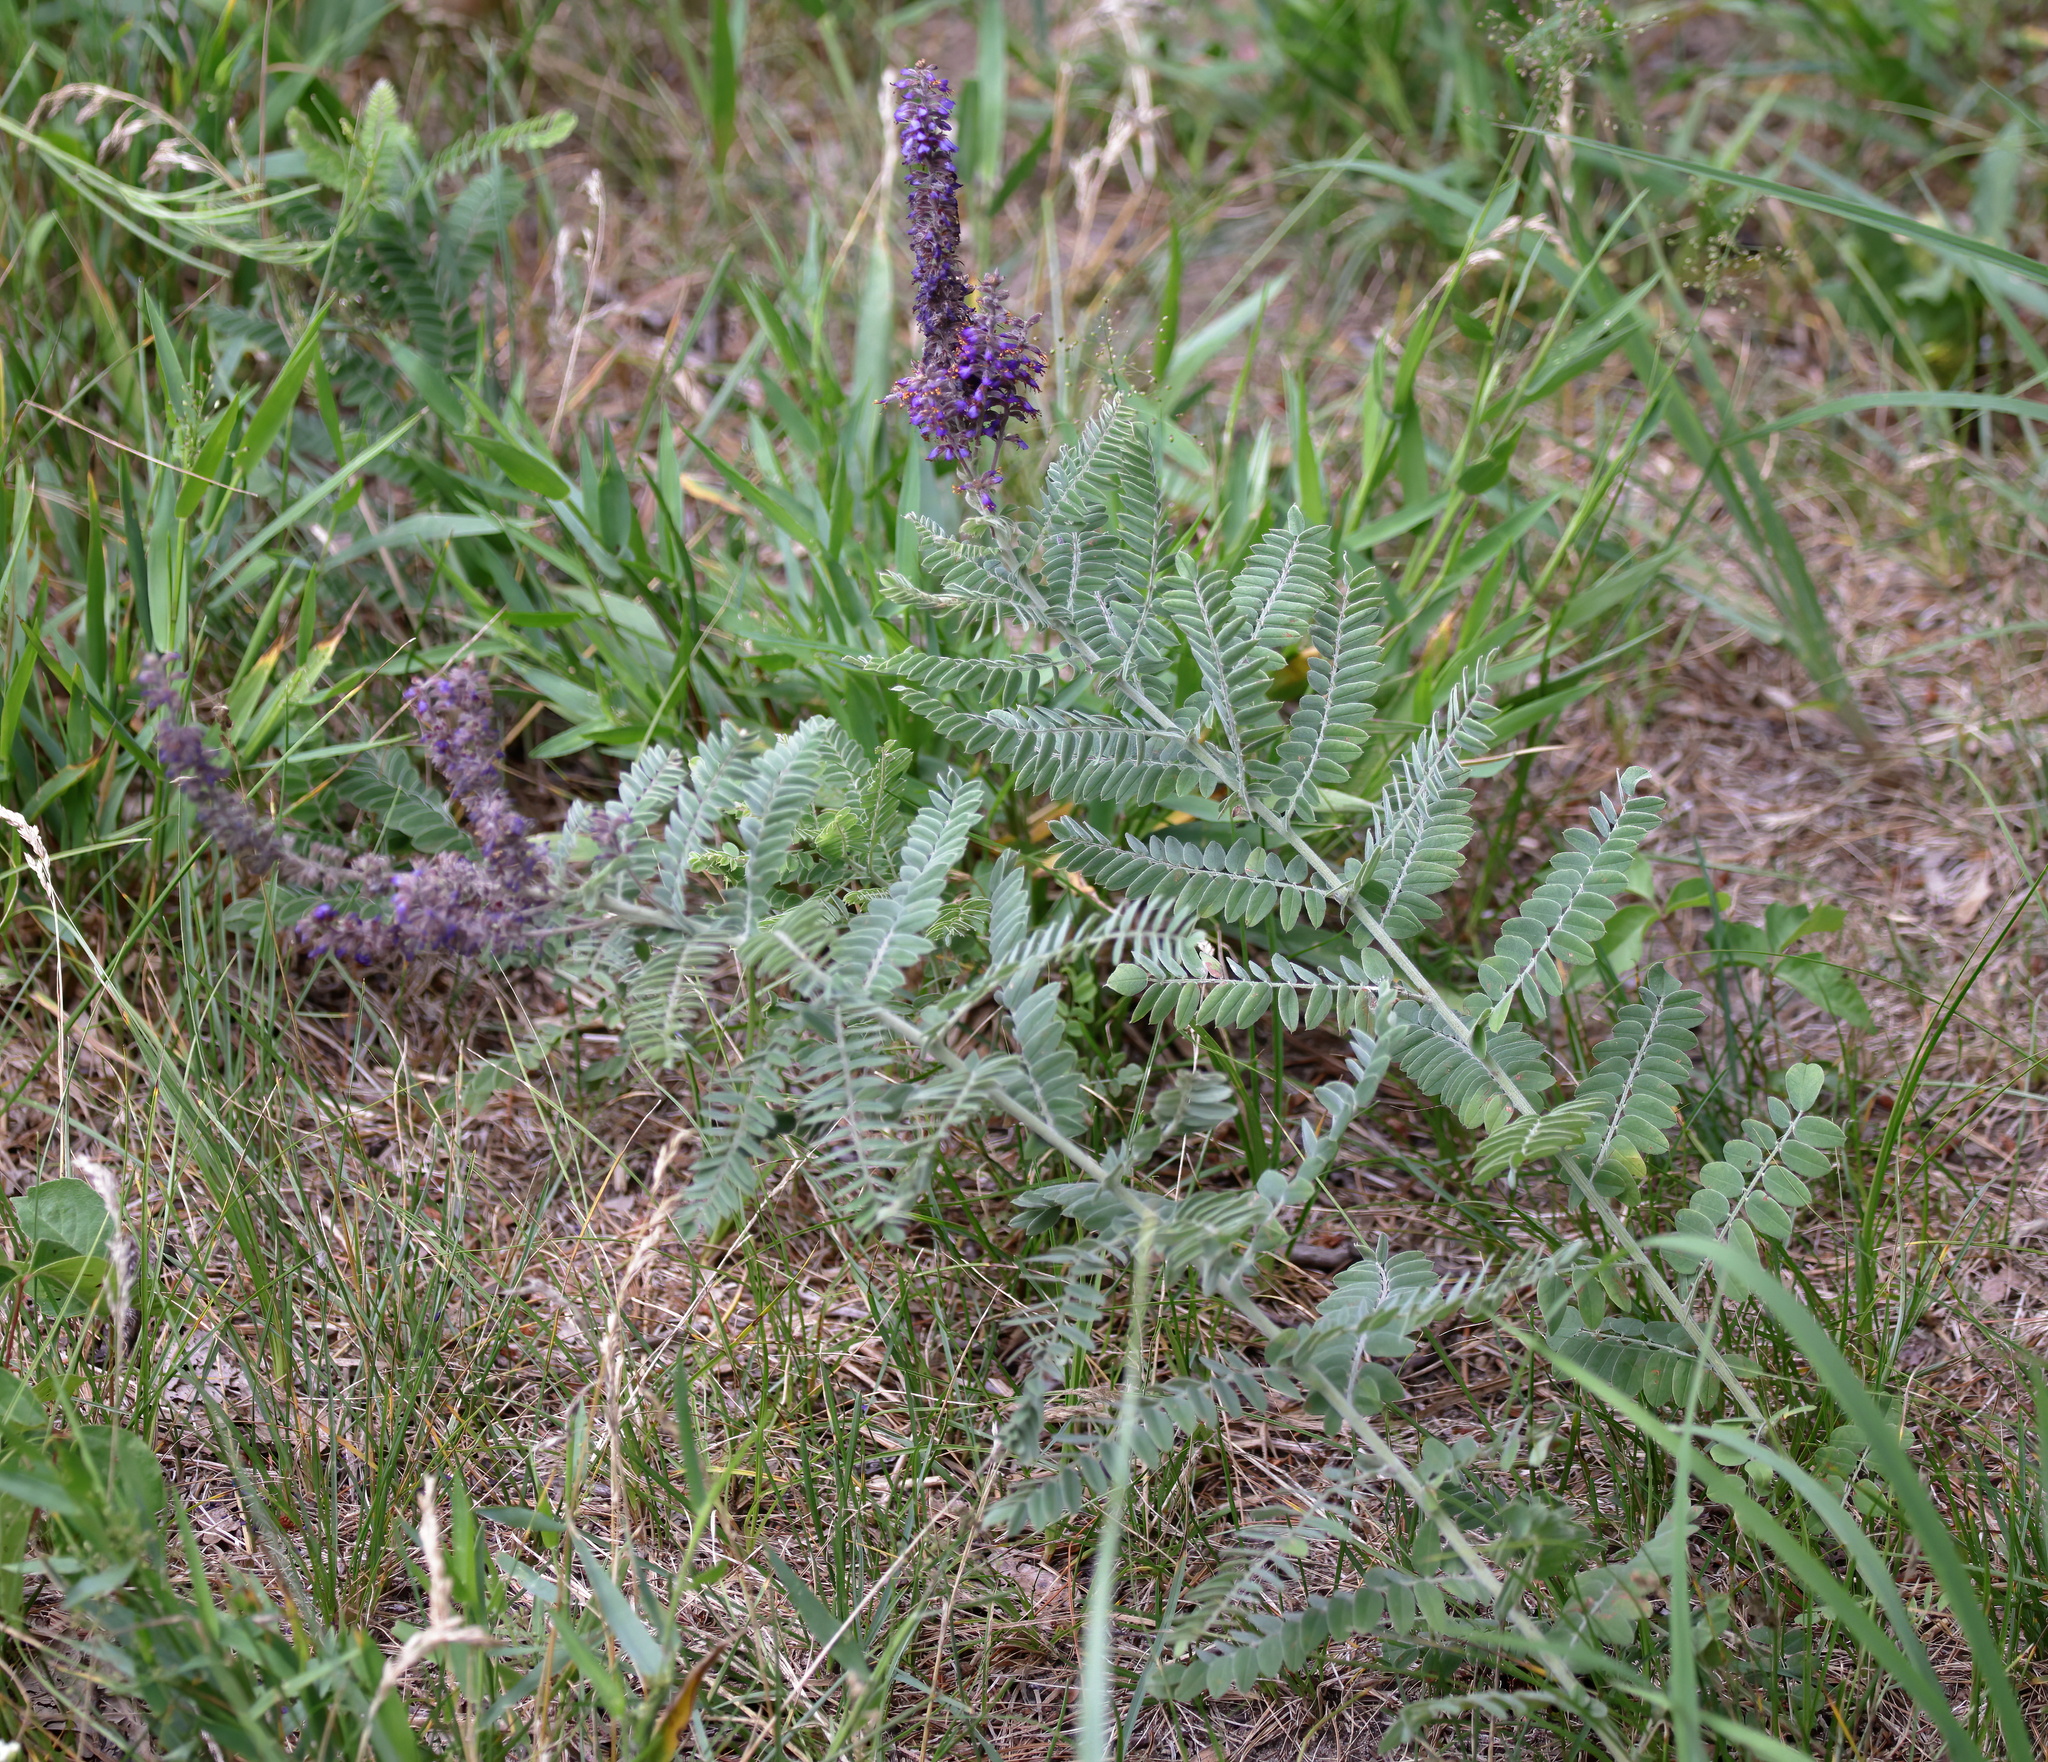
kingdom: Plantae
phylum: Tracheophyta
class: Magnoliopsida
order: Fabales
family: Fabaceae
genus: Amorpha
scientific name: Amorpha canescens
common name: Leadplant
